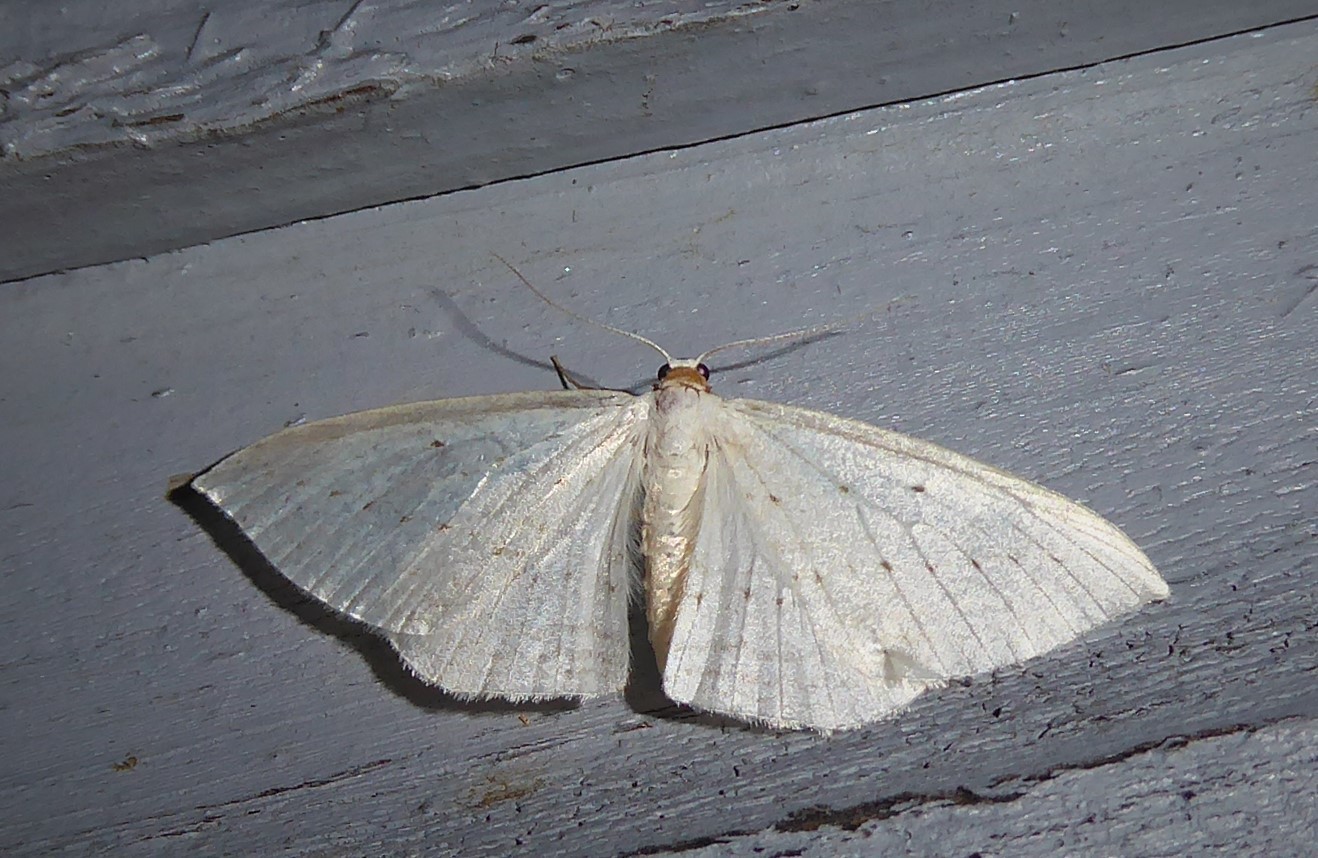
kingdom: Animalia
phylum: Arthropoda
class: Insecta
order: Lepidoptera
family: Geometridae
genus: Orthoclydon
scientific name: Orthoclydon praefectata
